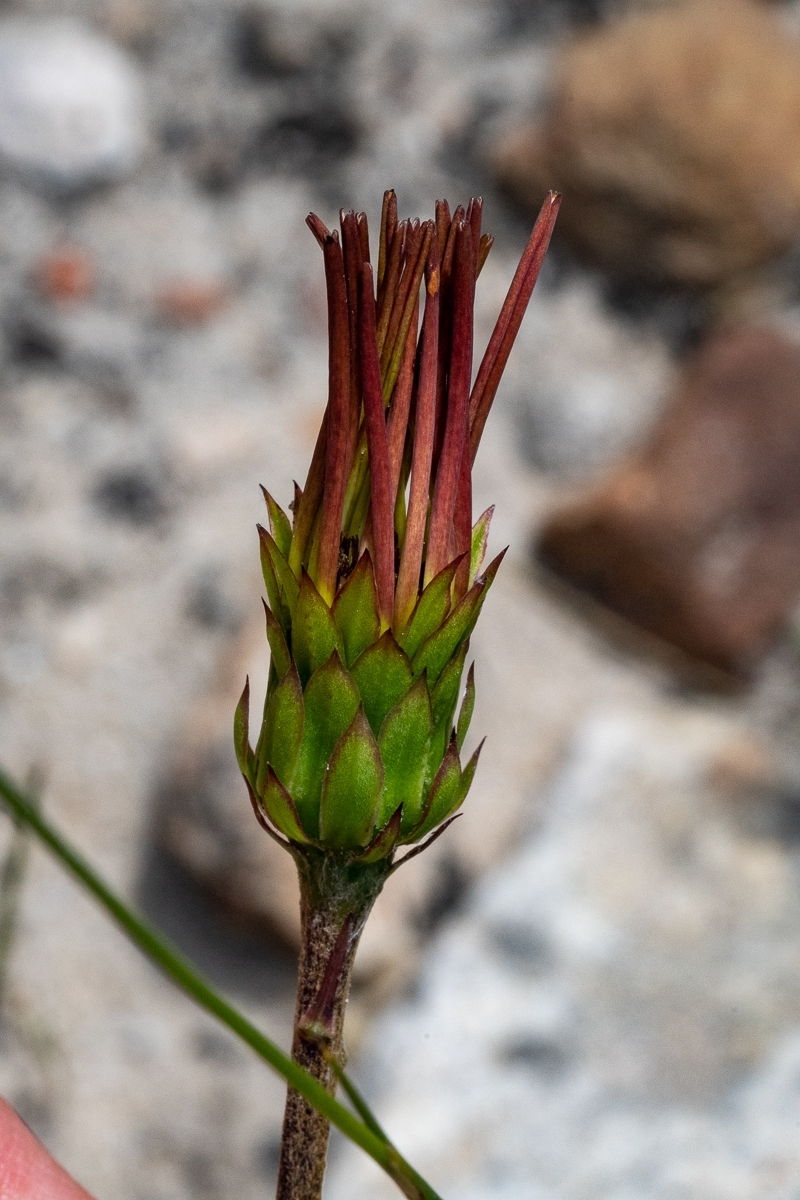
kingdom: Plantae
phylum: Tracheophyta
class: Magnoliopsida
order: Asterales
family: Asteraceae
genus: Gerbera
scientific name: Gerbera linnaei
